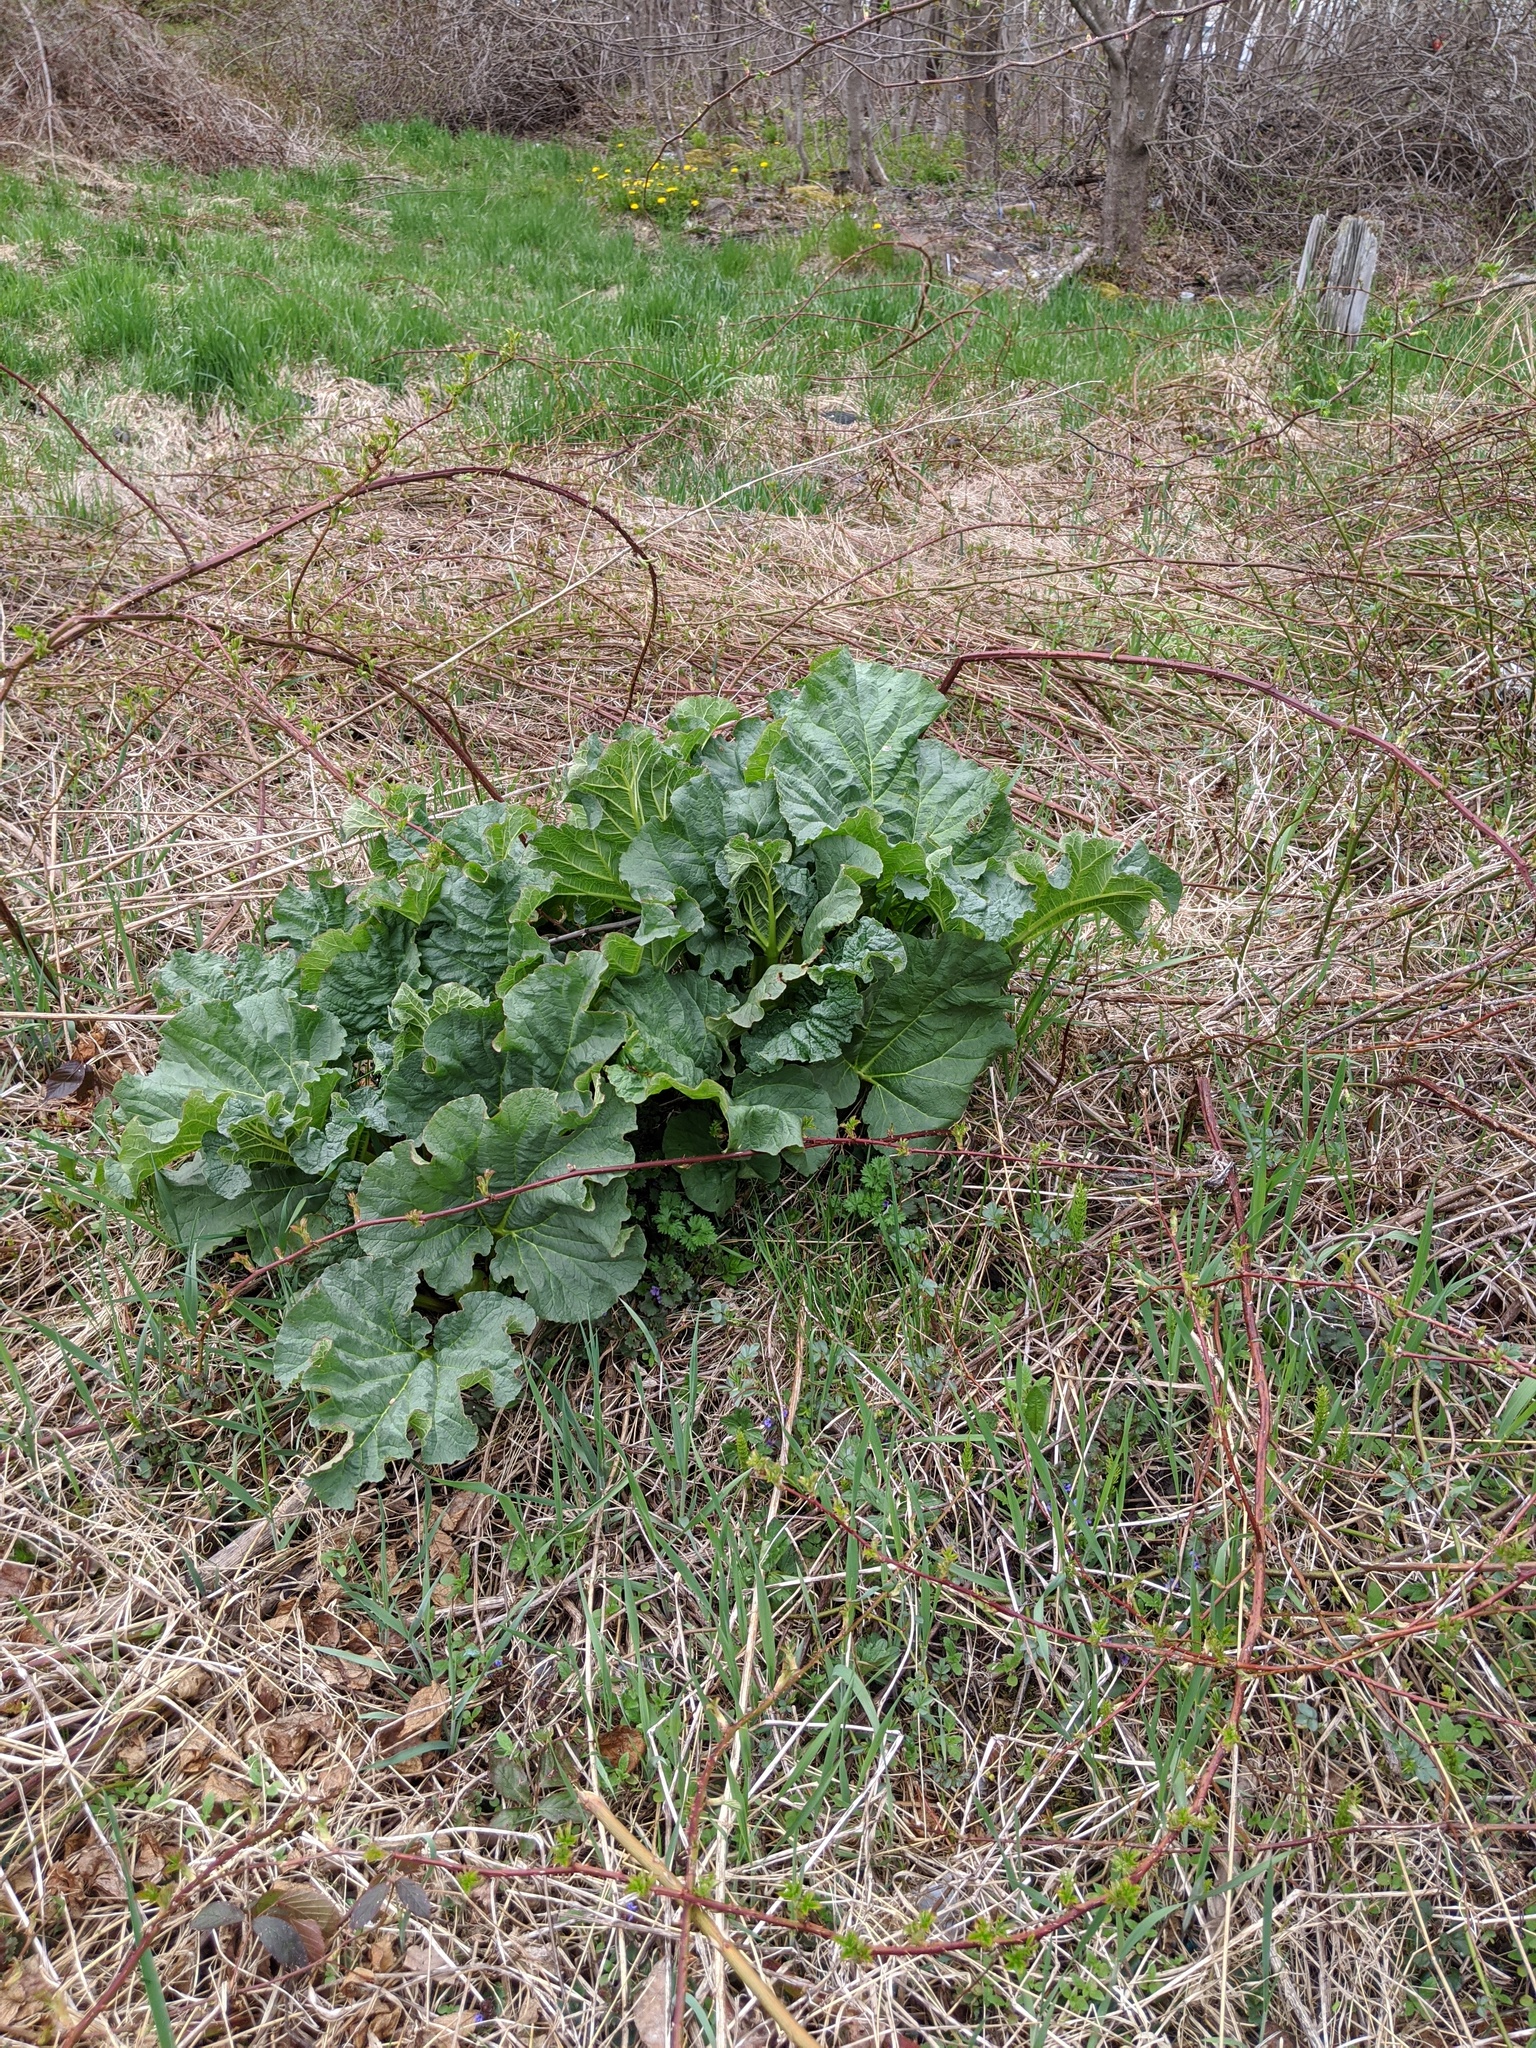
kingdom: Plantae
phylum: Tracheophyta
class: Magnoliopsida
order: Caryophyllales
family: Polygonaceae
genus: Rheum
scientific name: Rheum hybridum
